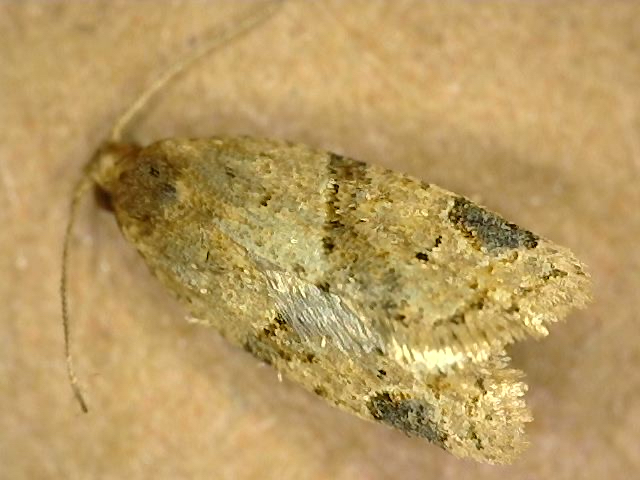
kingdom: Animalia
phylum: Arthropoda
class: Insecta
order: Lepidoptera
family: Tortricidae
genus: Clepsis
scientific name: Clepsis peritana
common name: Garden tortrix
